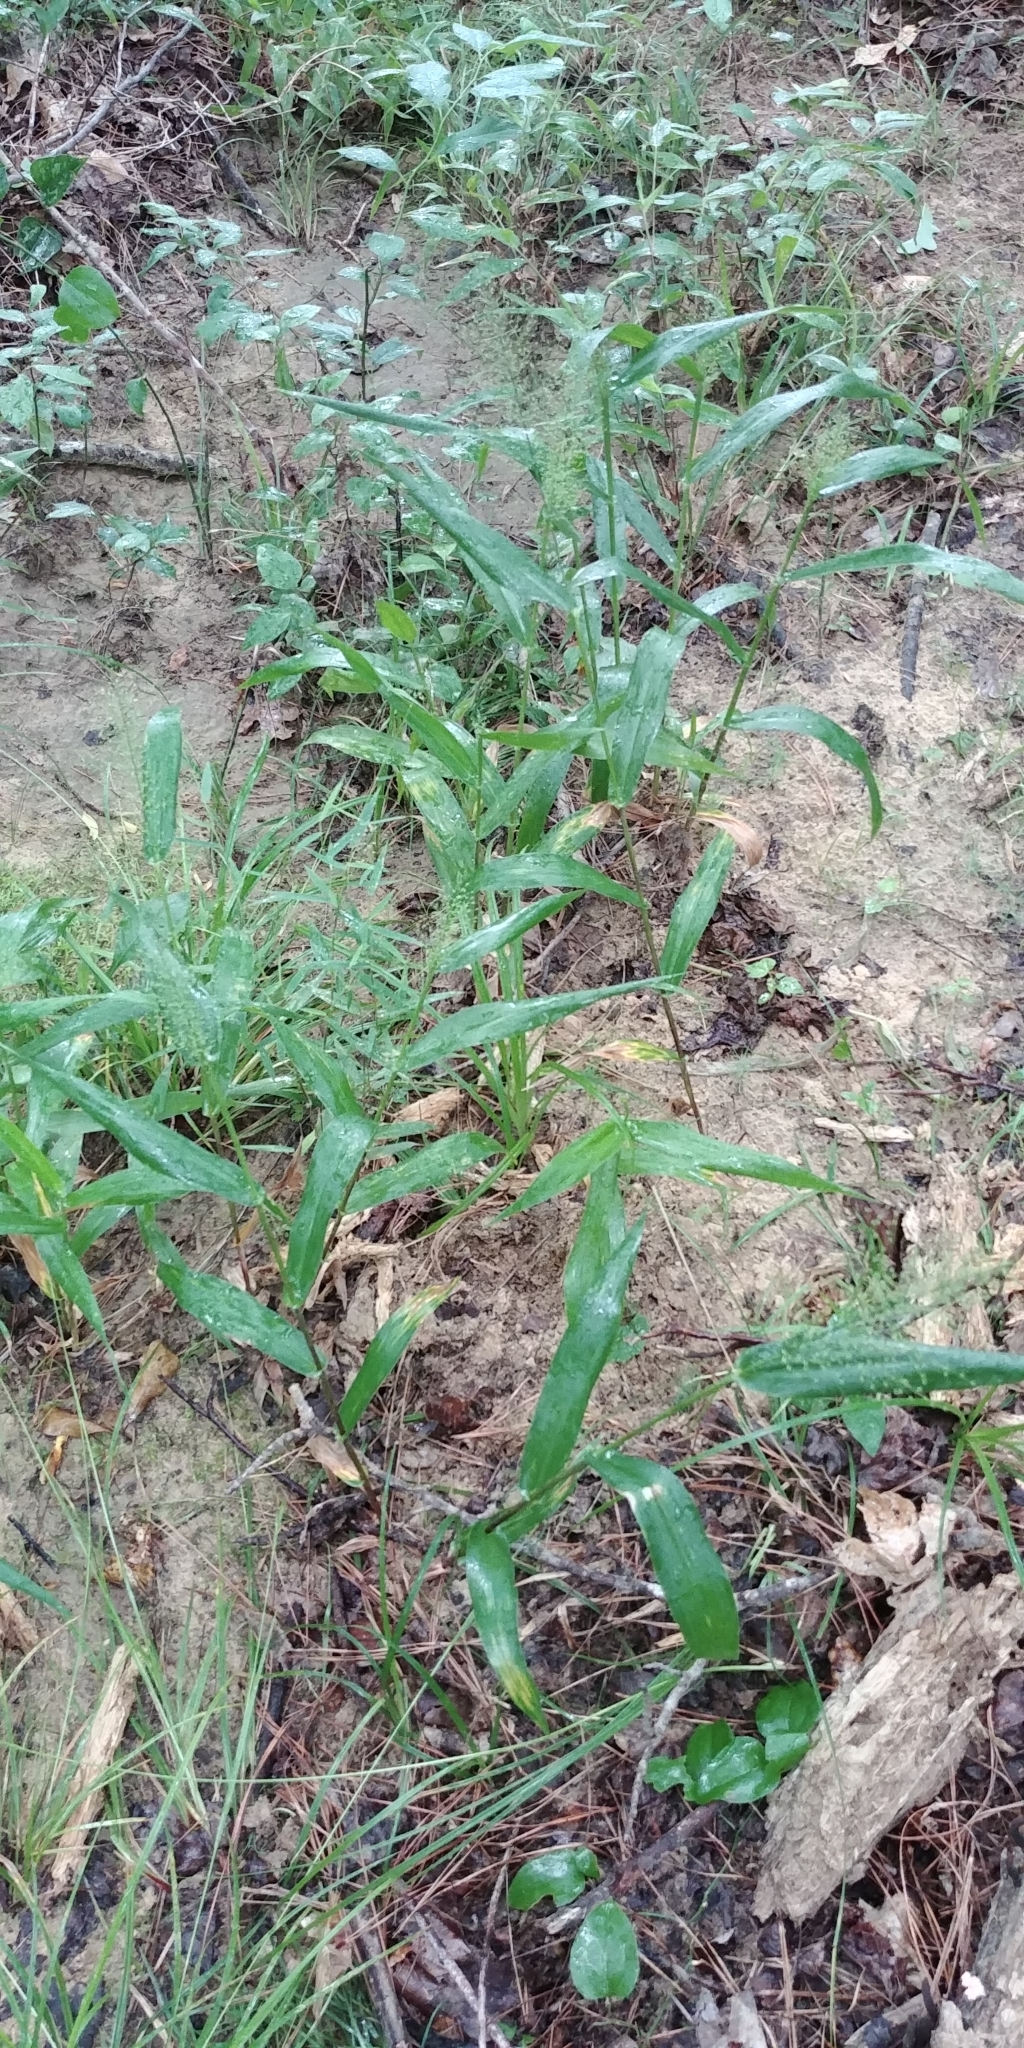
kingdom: Plantae
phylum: Tracheophyta
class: Liliopsida
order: Poales
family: Poaceae
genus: Dichanthelium
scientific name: Dichanthelium polyanthes
